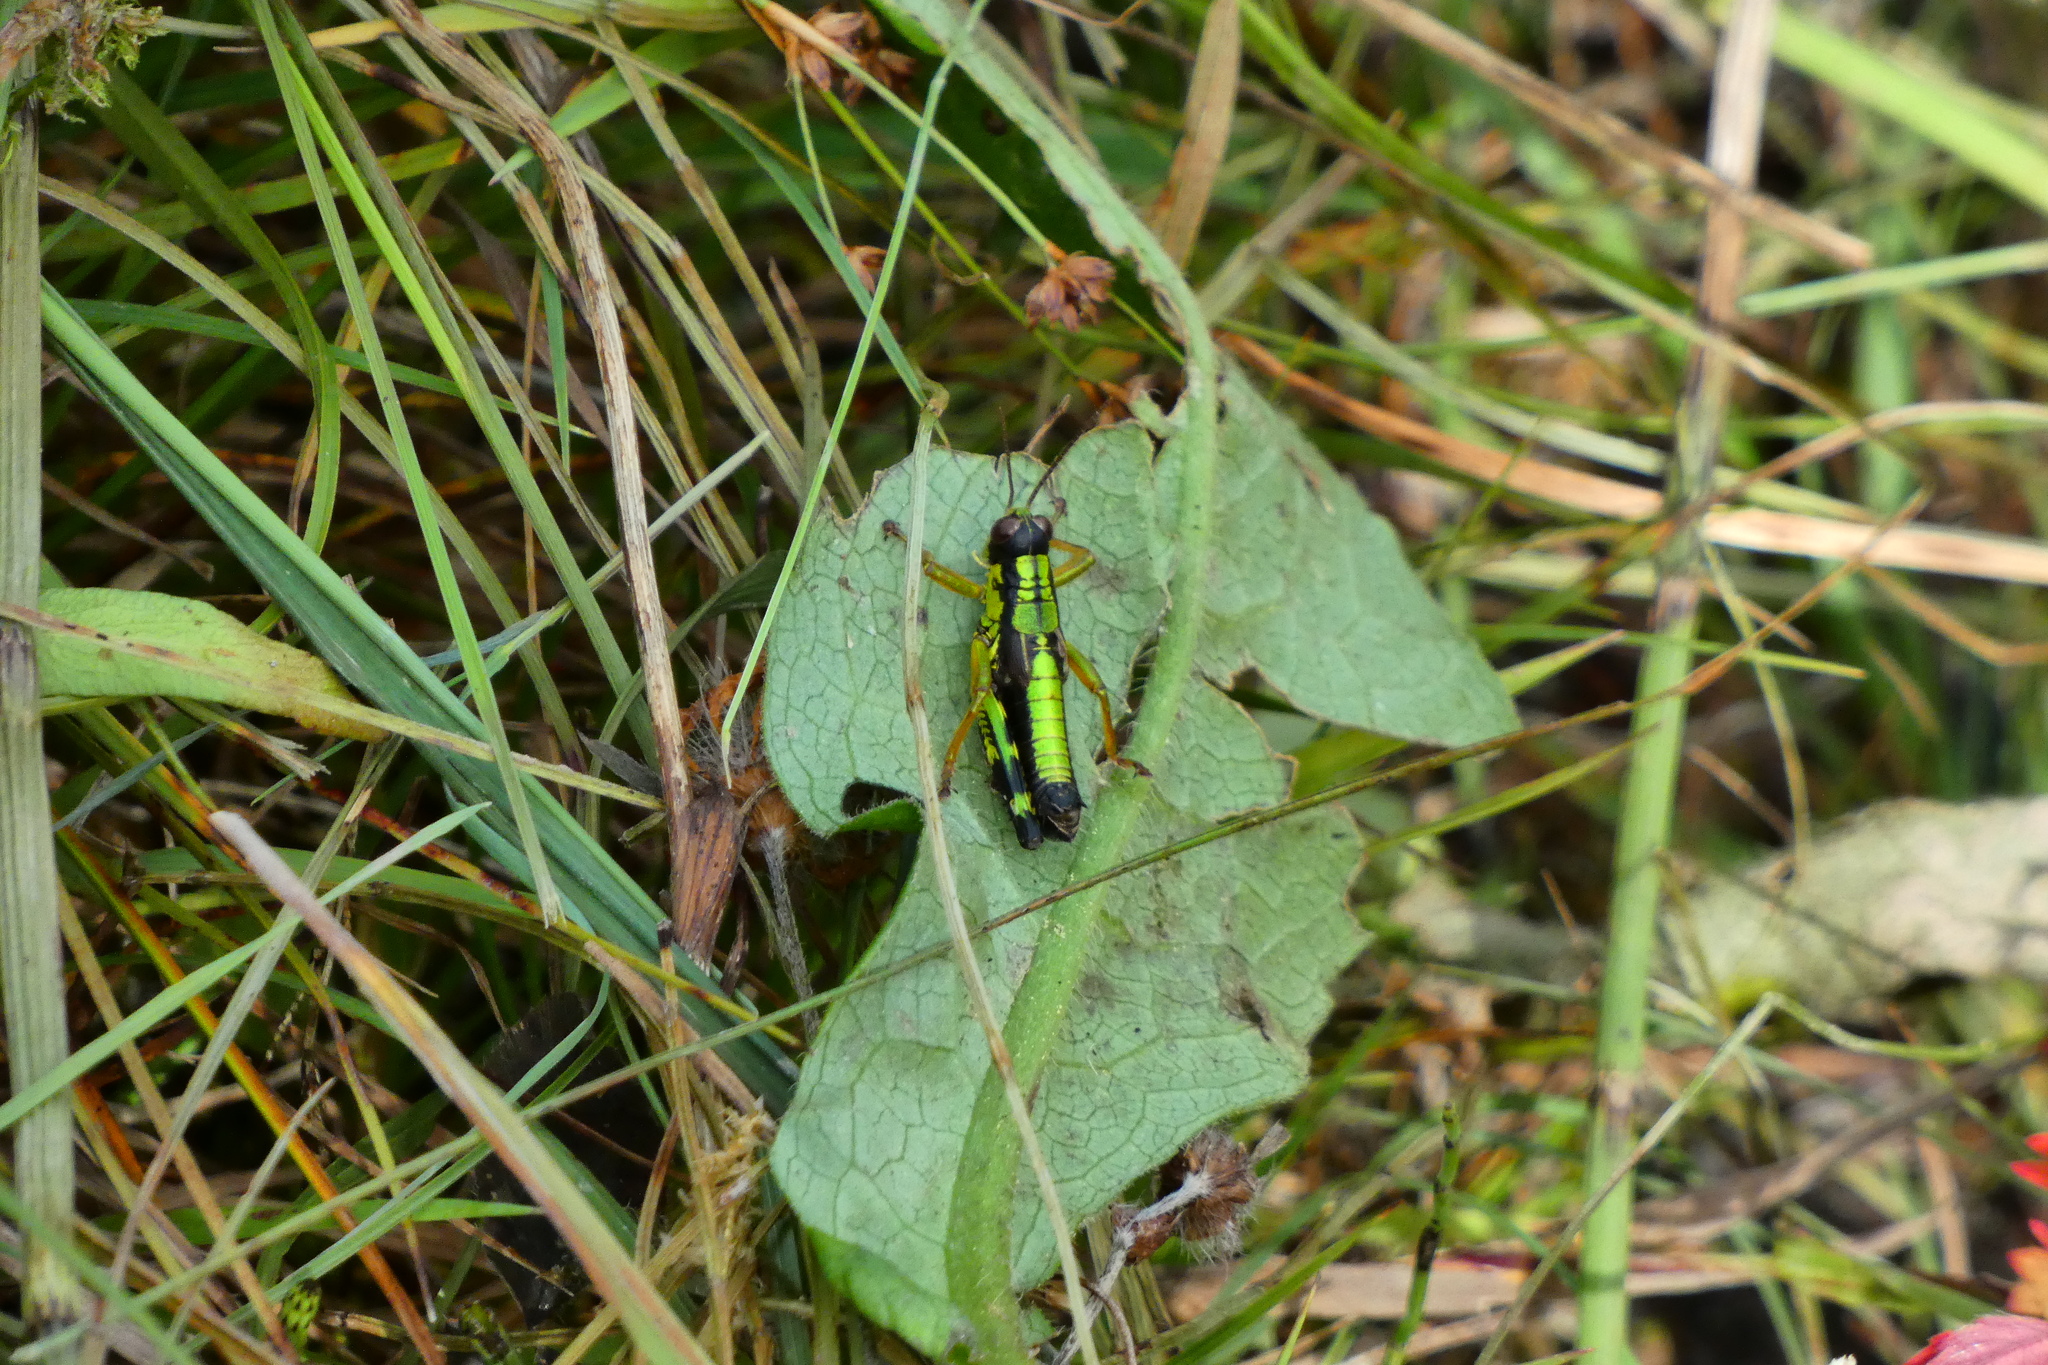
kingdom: Animalia
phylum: Arthropoda
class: Insecta
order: Orthoptera
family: Acrididae
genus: Miramella
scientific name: Miramella alpina
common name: Green mountain grasshopper
